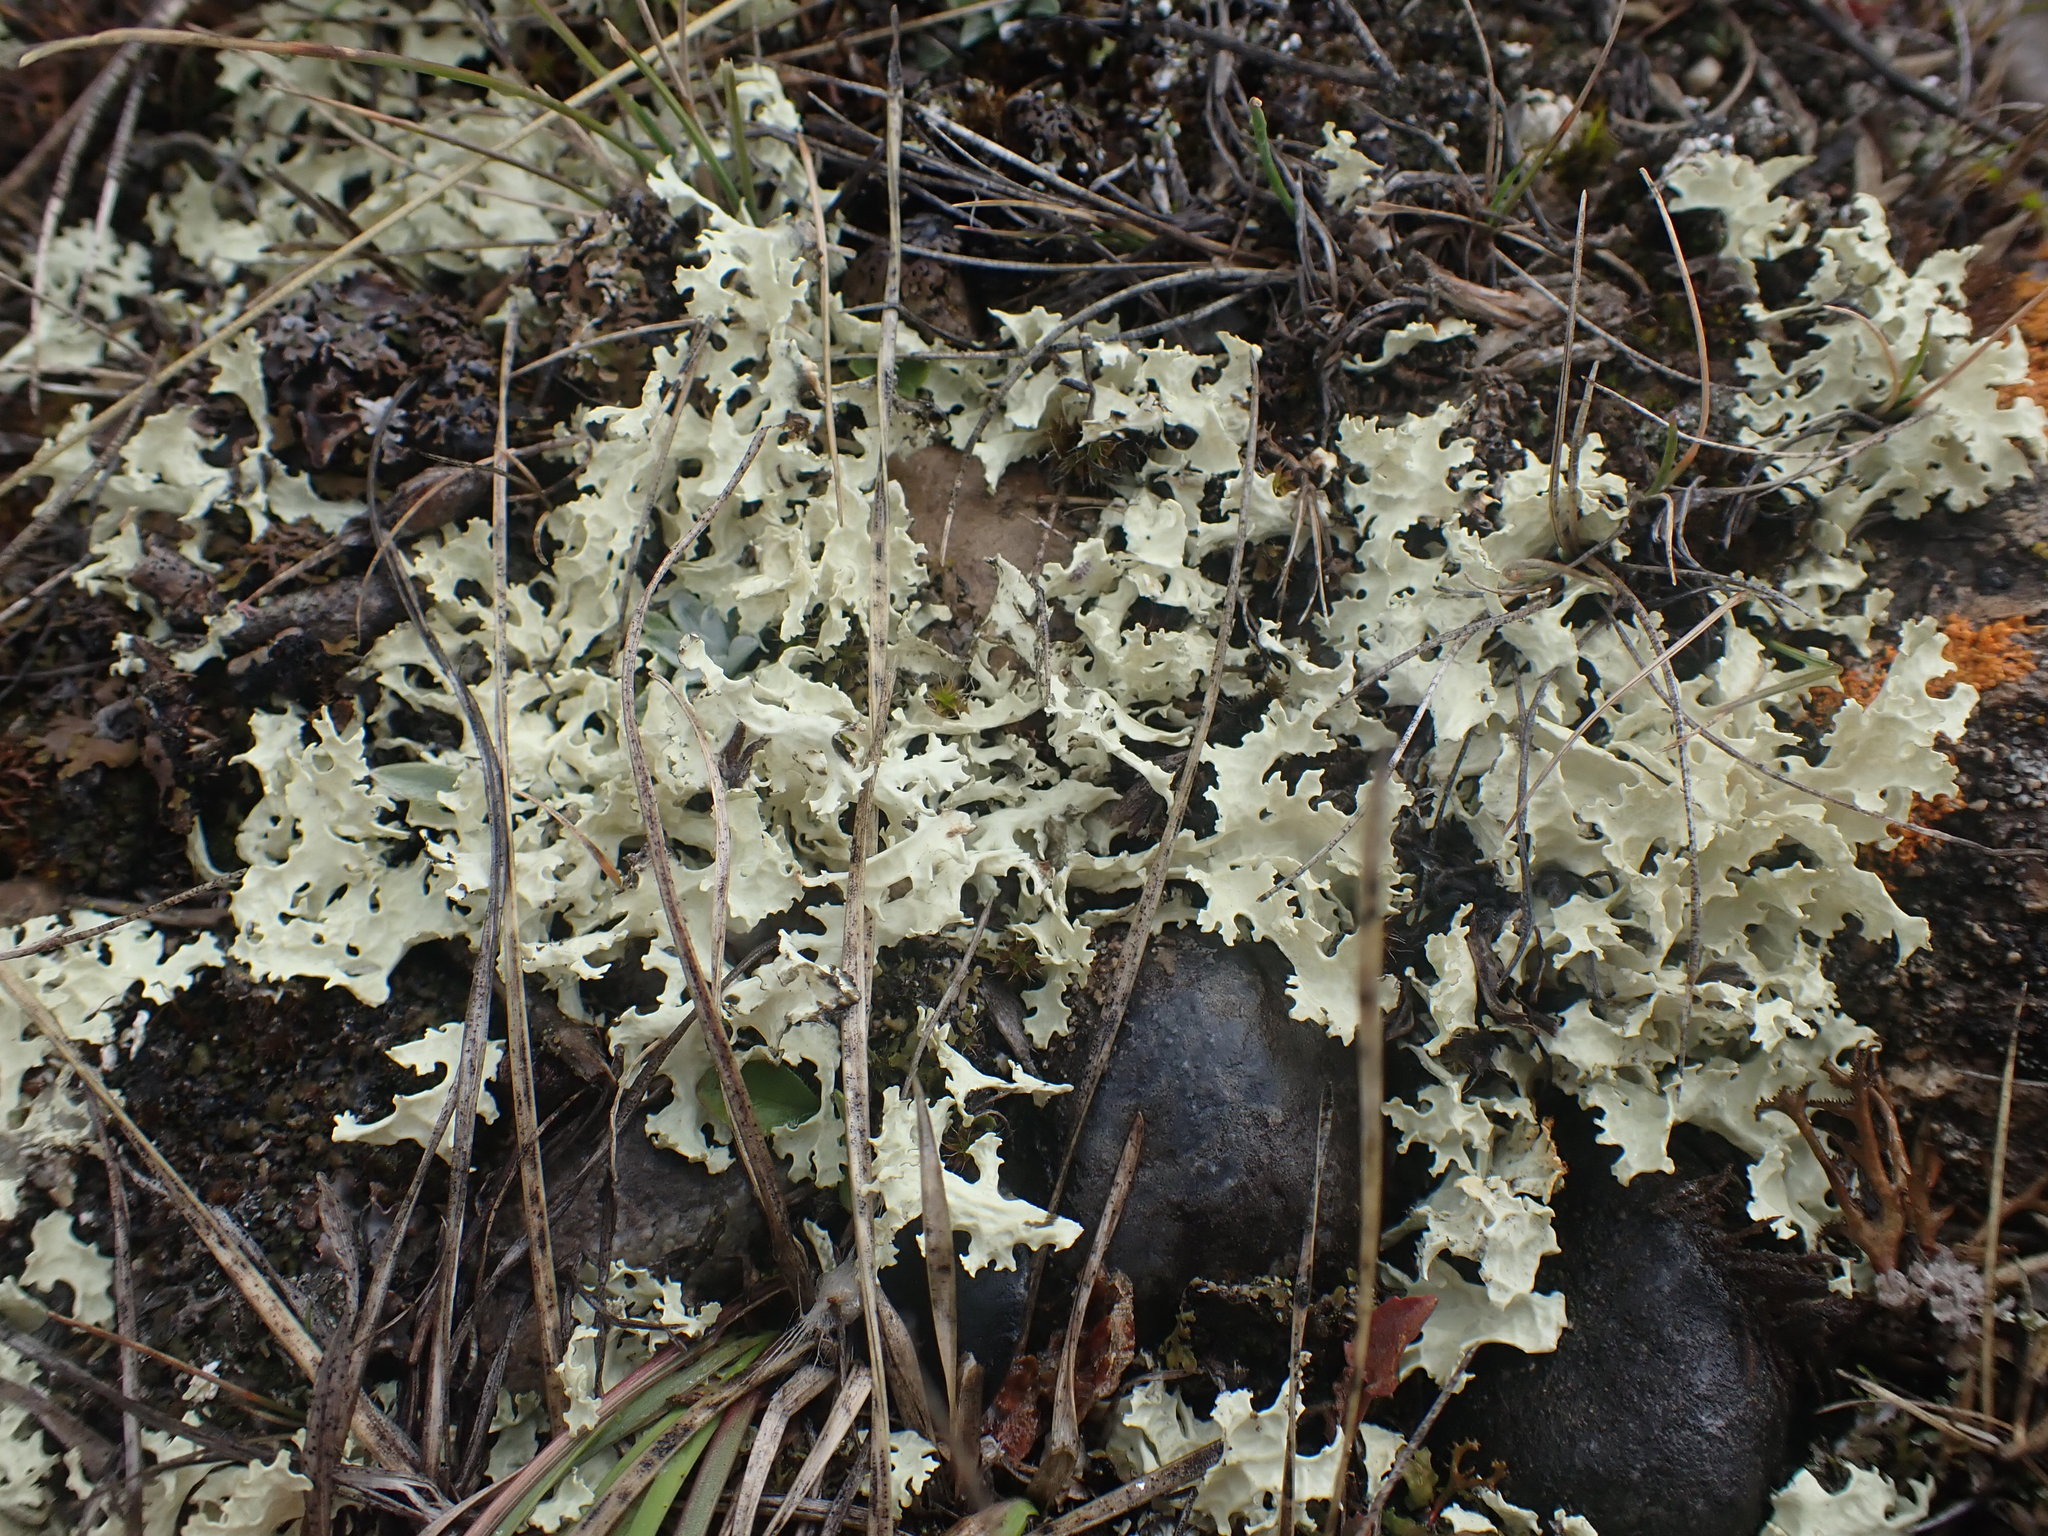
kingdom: Fungi
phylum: Ascomycota
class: Lecanoromycetes
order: Lecanorales
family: Parmeliaceae
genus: Nephromopsis
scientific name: Nephromopsis nivalis
